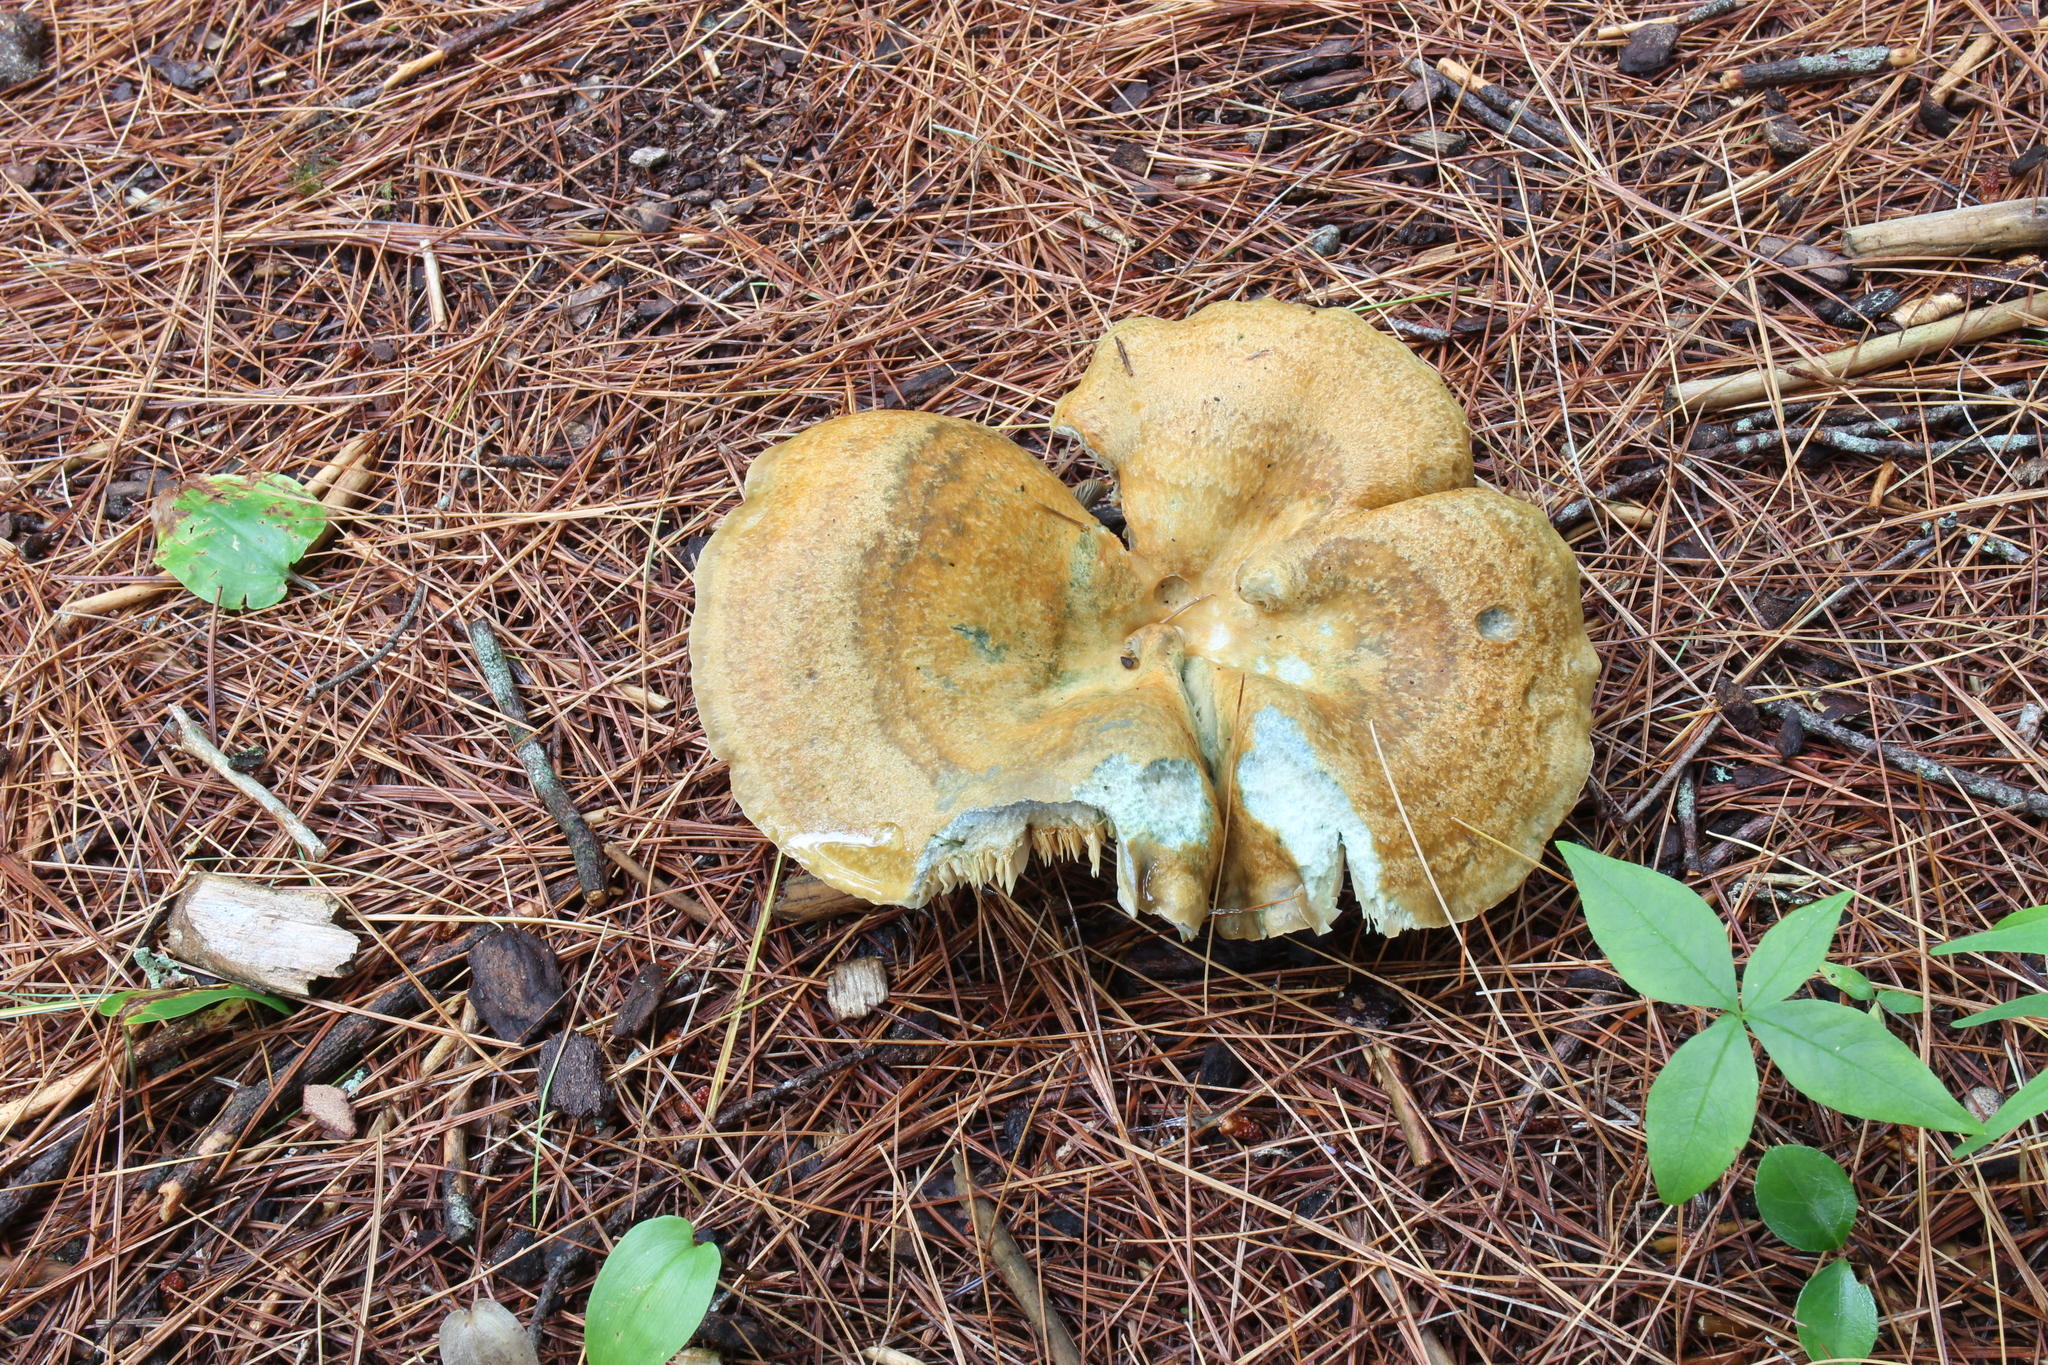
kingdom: Fungi
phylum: Basidiomycota
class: Agaricomycetes
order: Russulales
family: Russulaceae
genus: Lactarius
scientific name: Lactarius chelidonium
